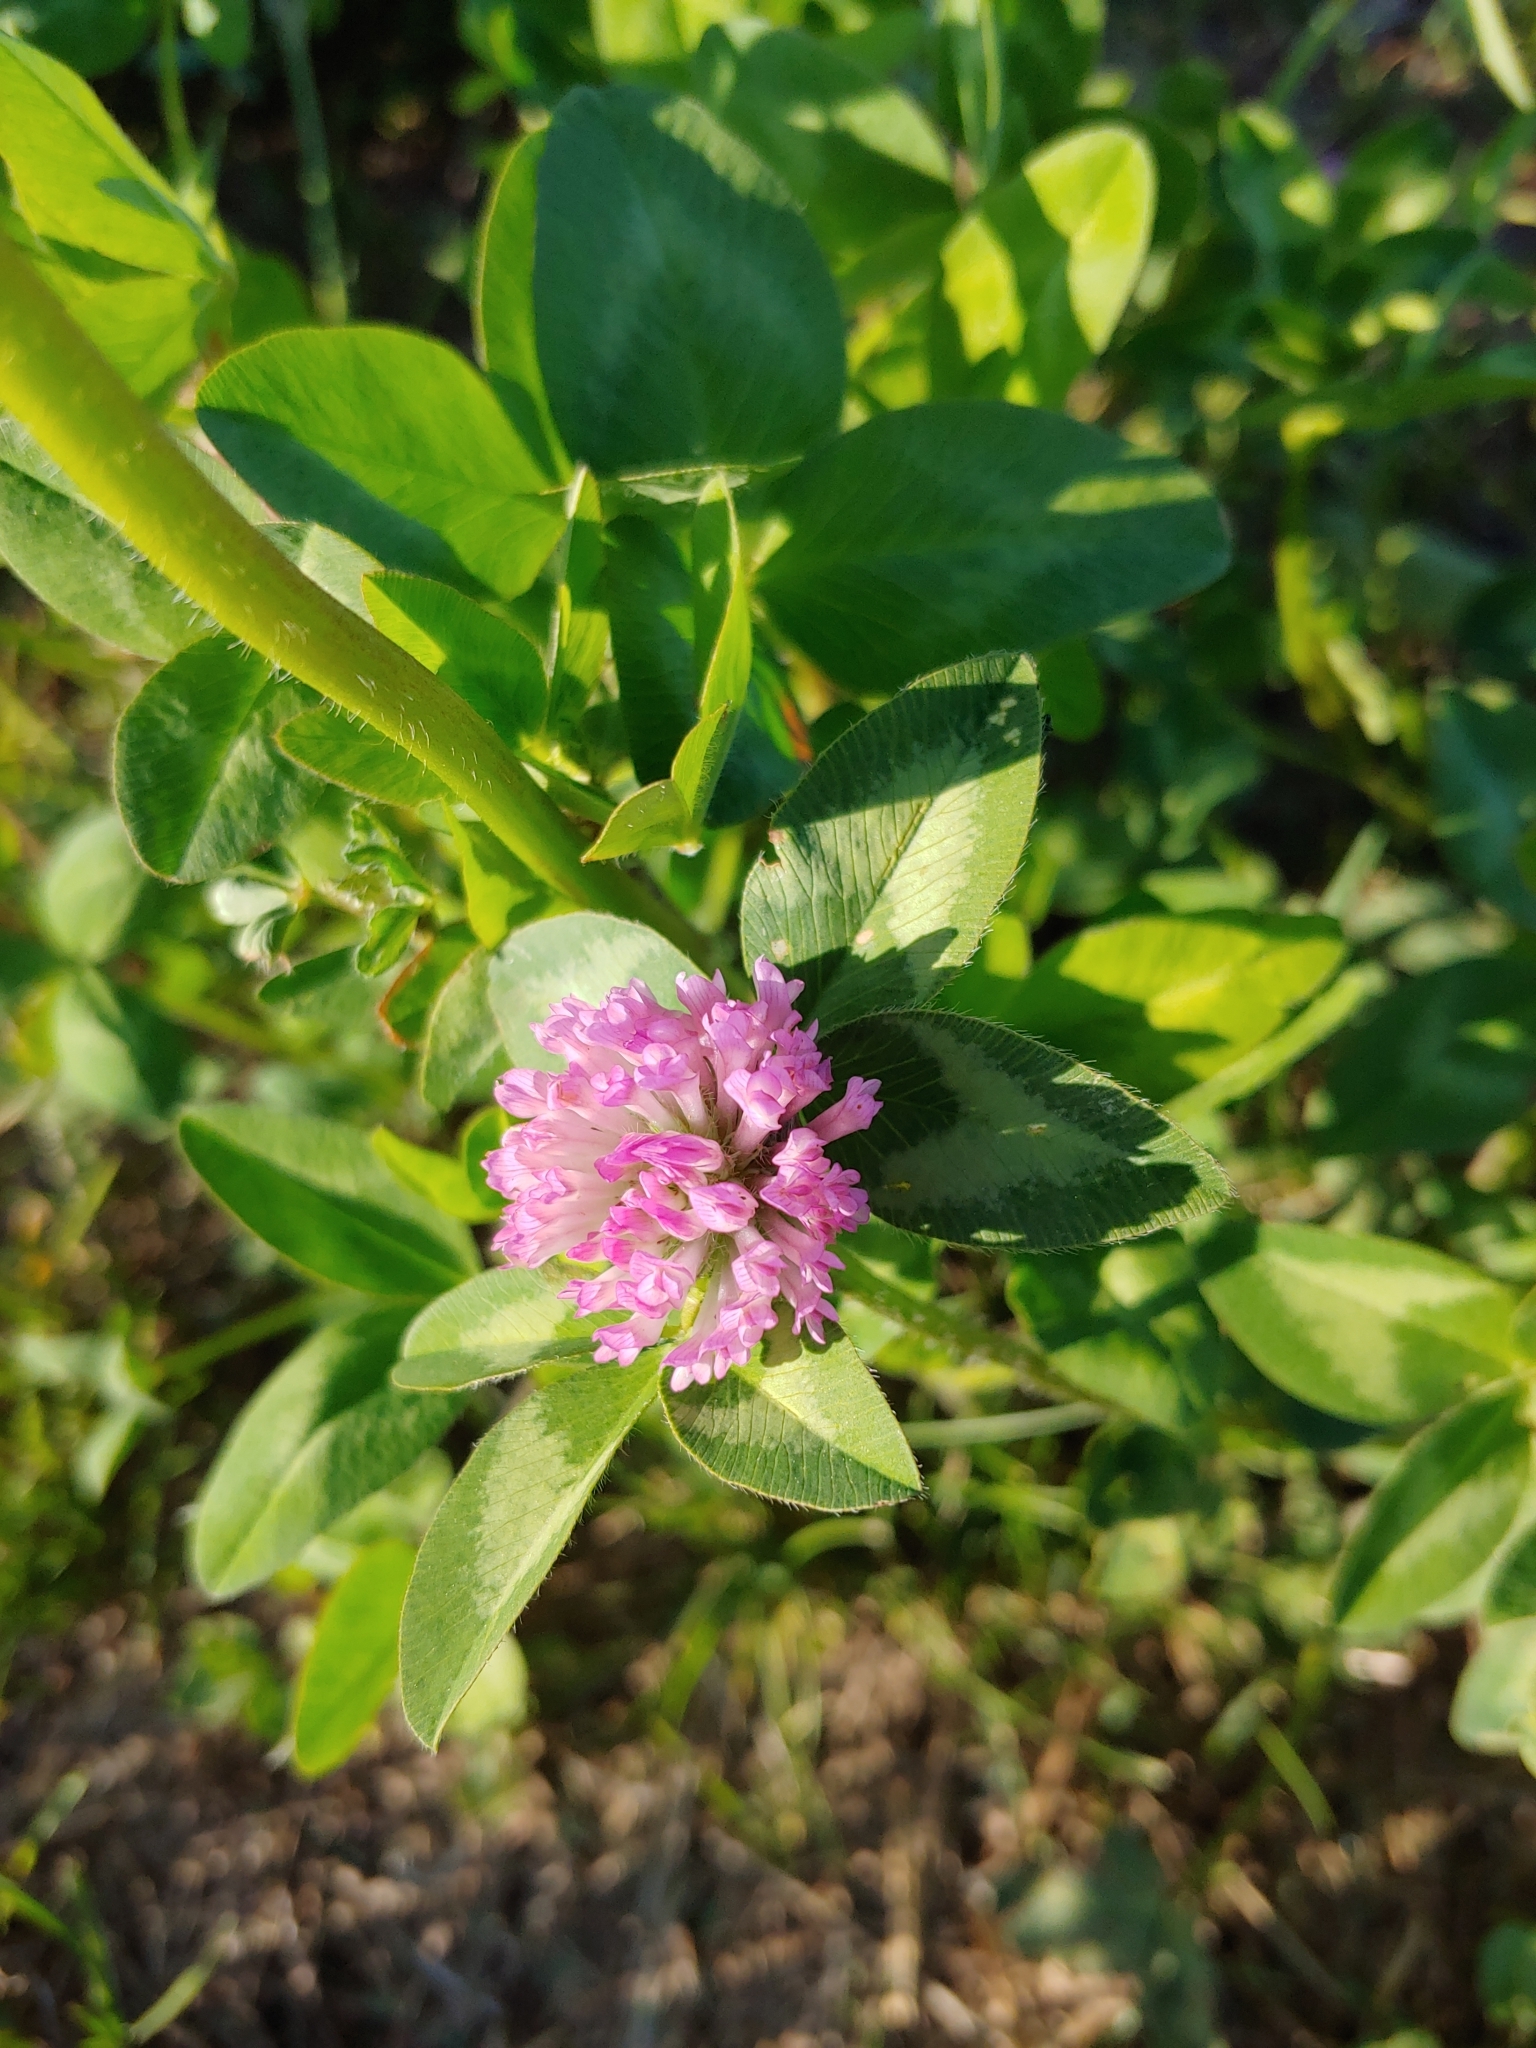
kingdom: Plantae
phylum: Tracheophyta
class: Magnoliopsida
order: Fabales
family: Fabaceae
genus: Trifolium
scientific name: Trifolium pratense
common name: Red clover
